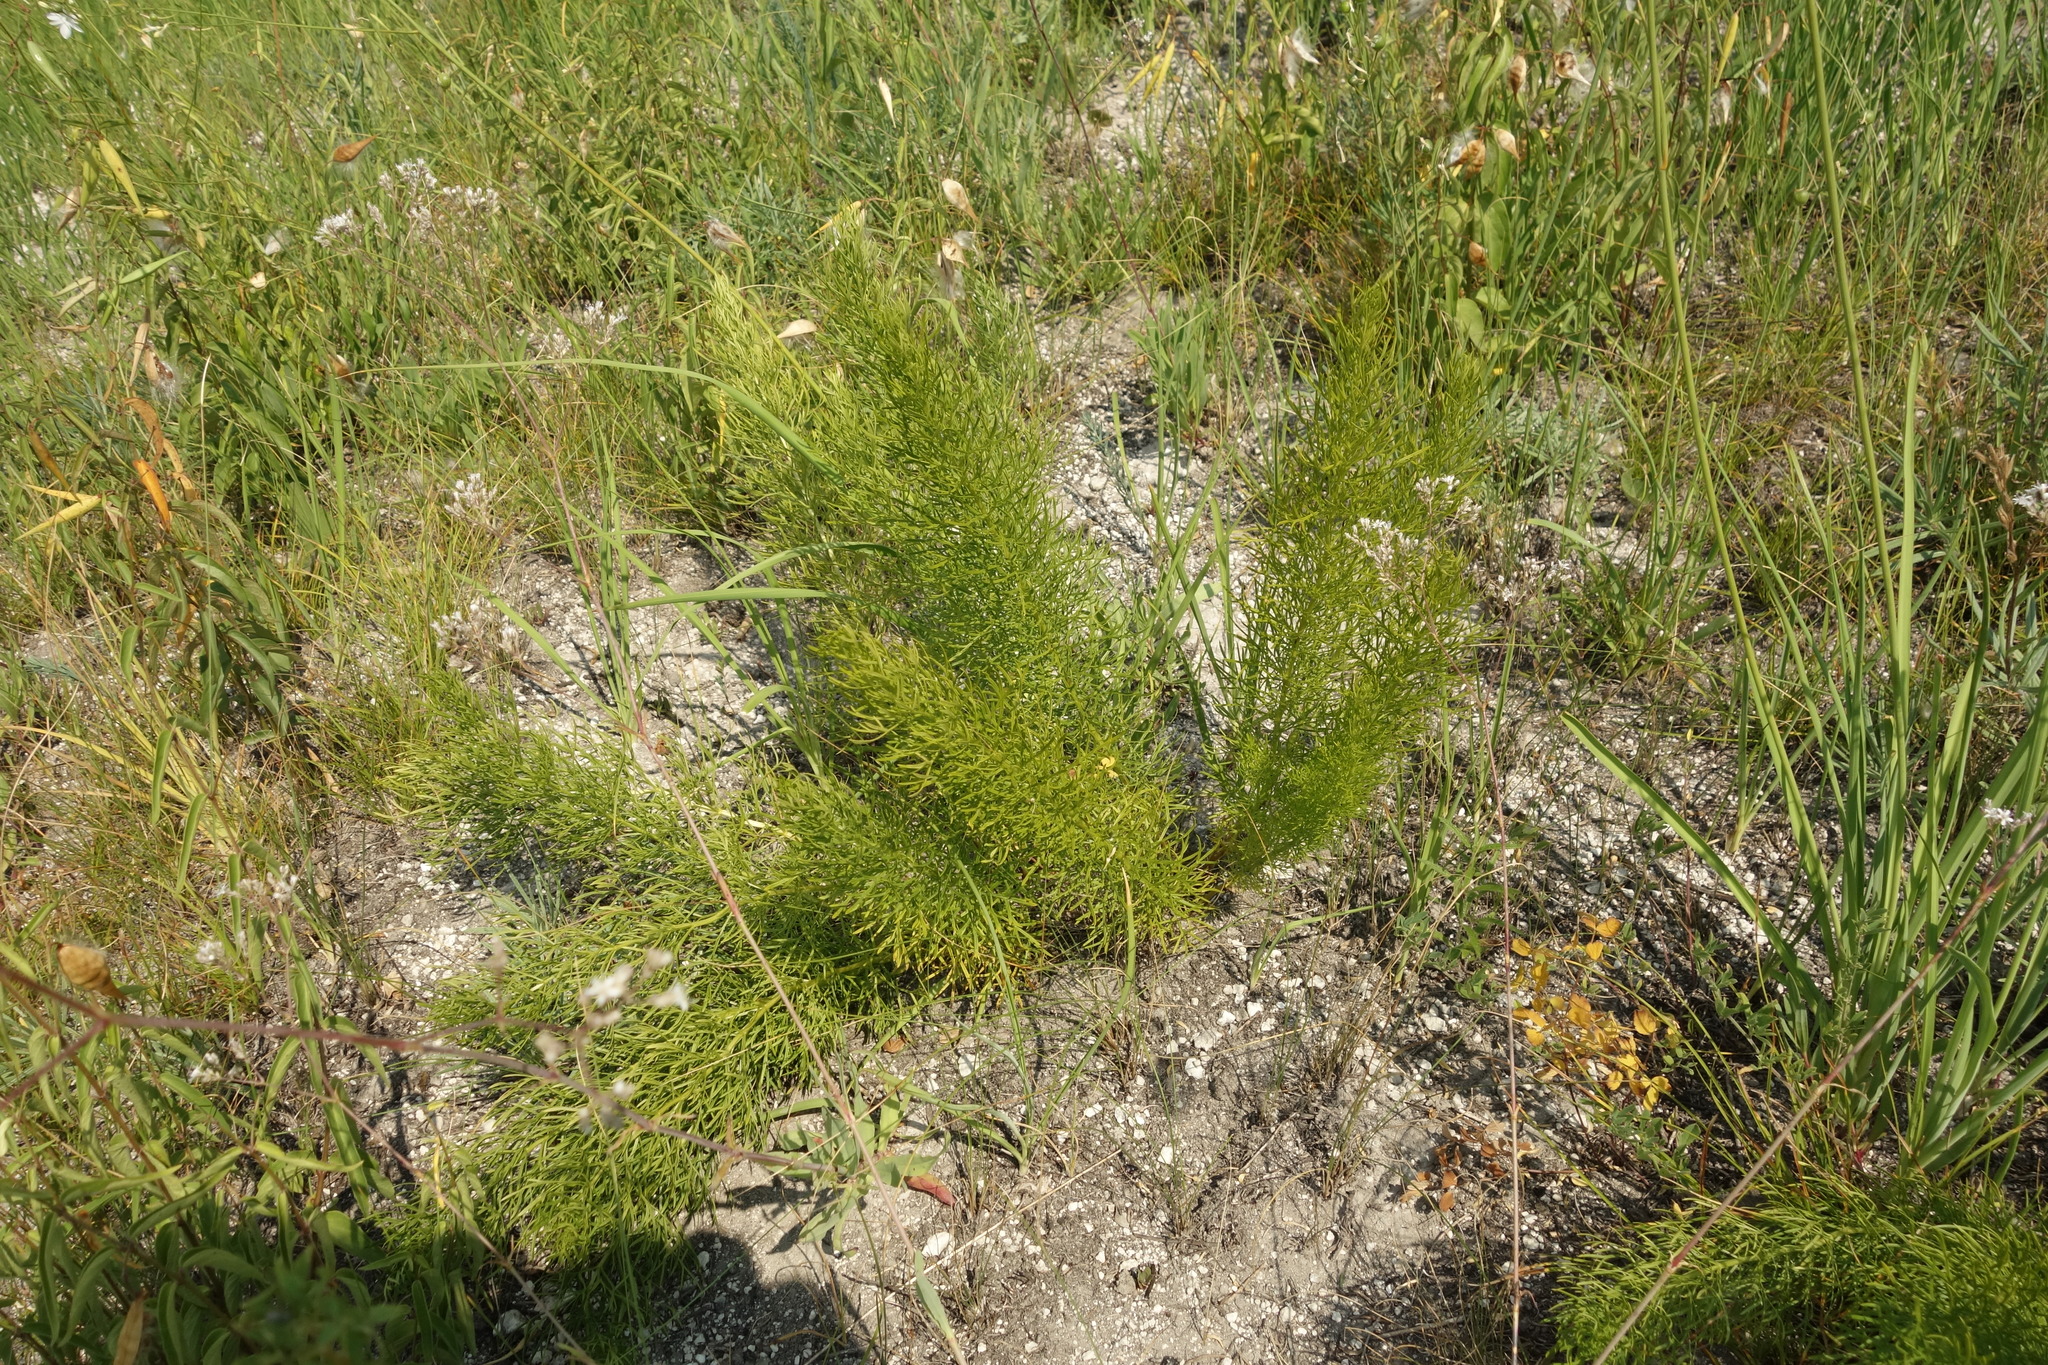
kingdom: Plantae
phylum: Tracheophyta
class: Magnoliopsida
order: Ranunculales
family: Ranunculaceae
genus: Adonis
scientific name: Adonis vernalis
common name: Yellow pheasants-eye
